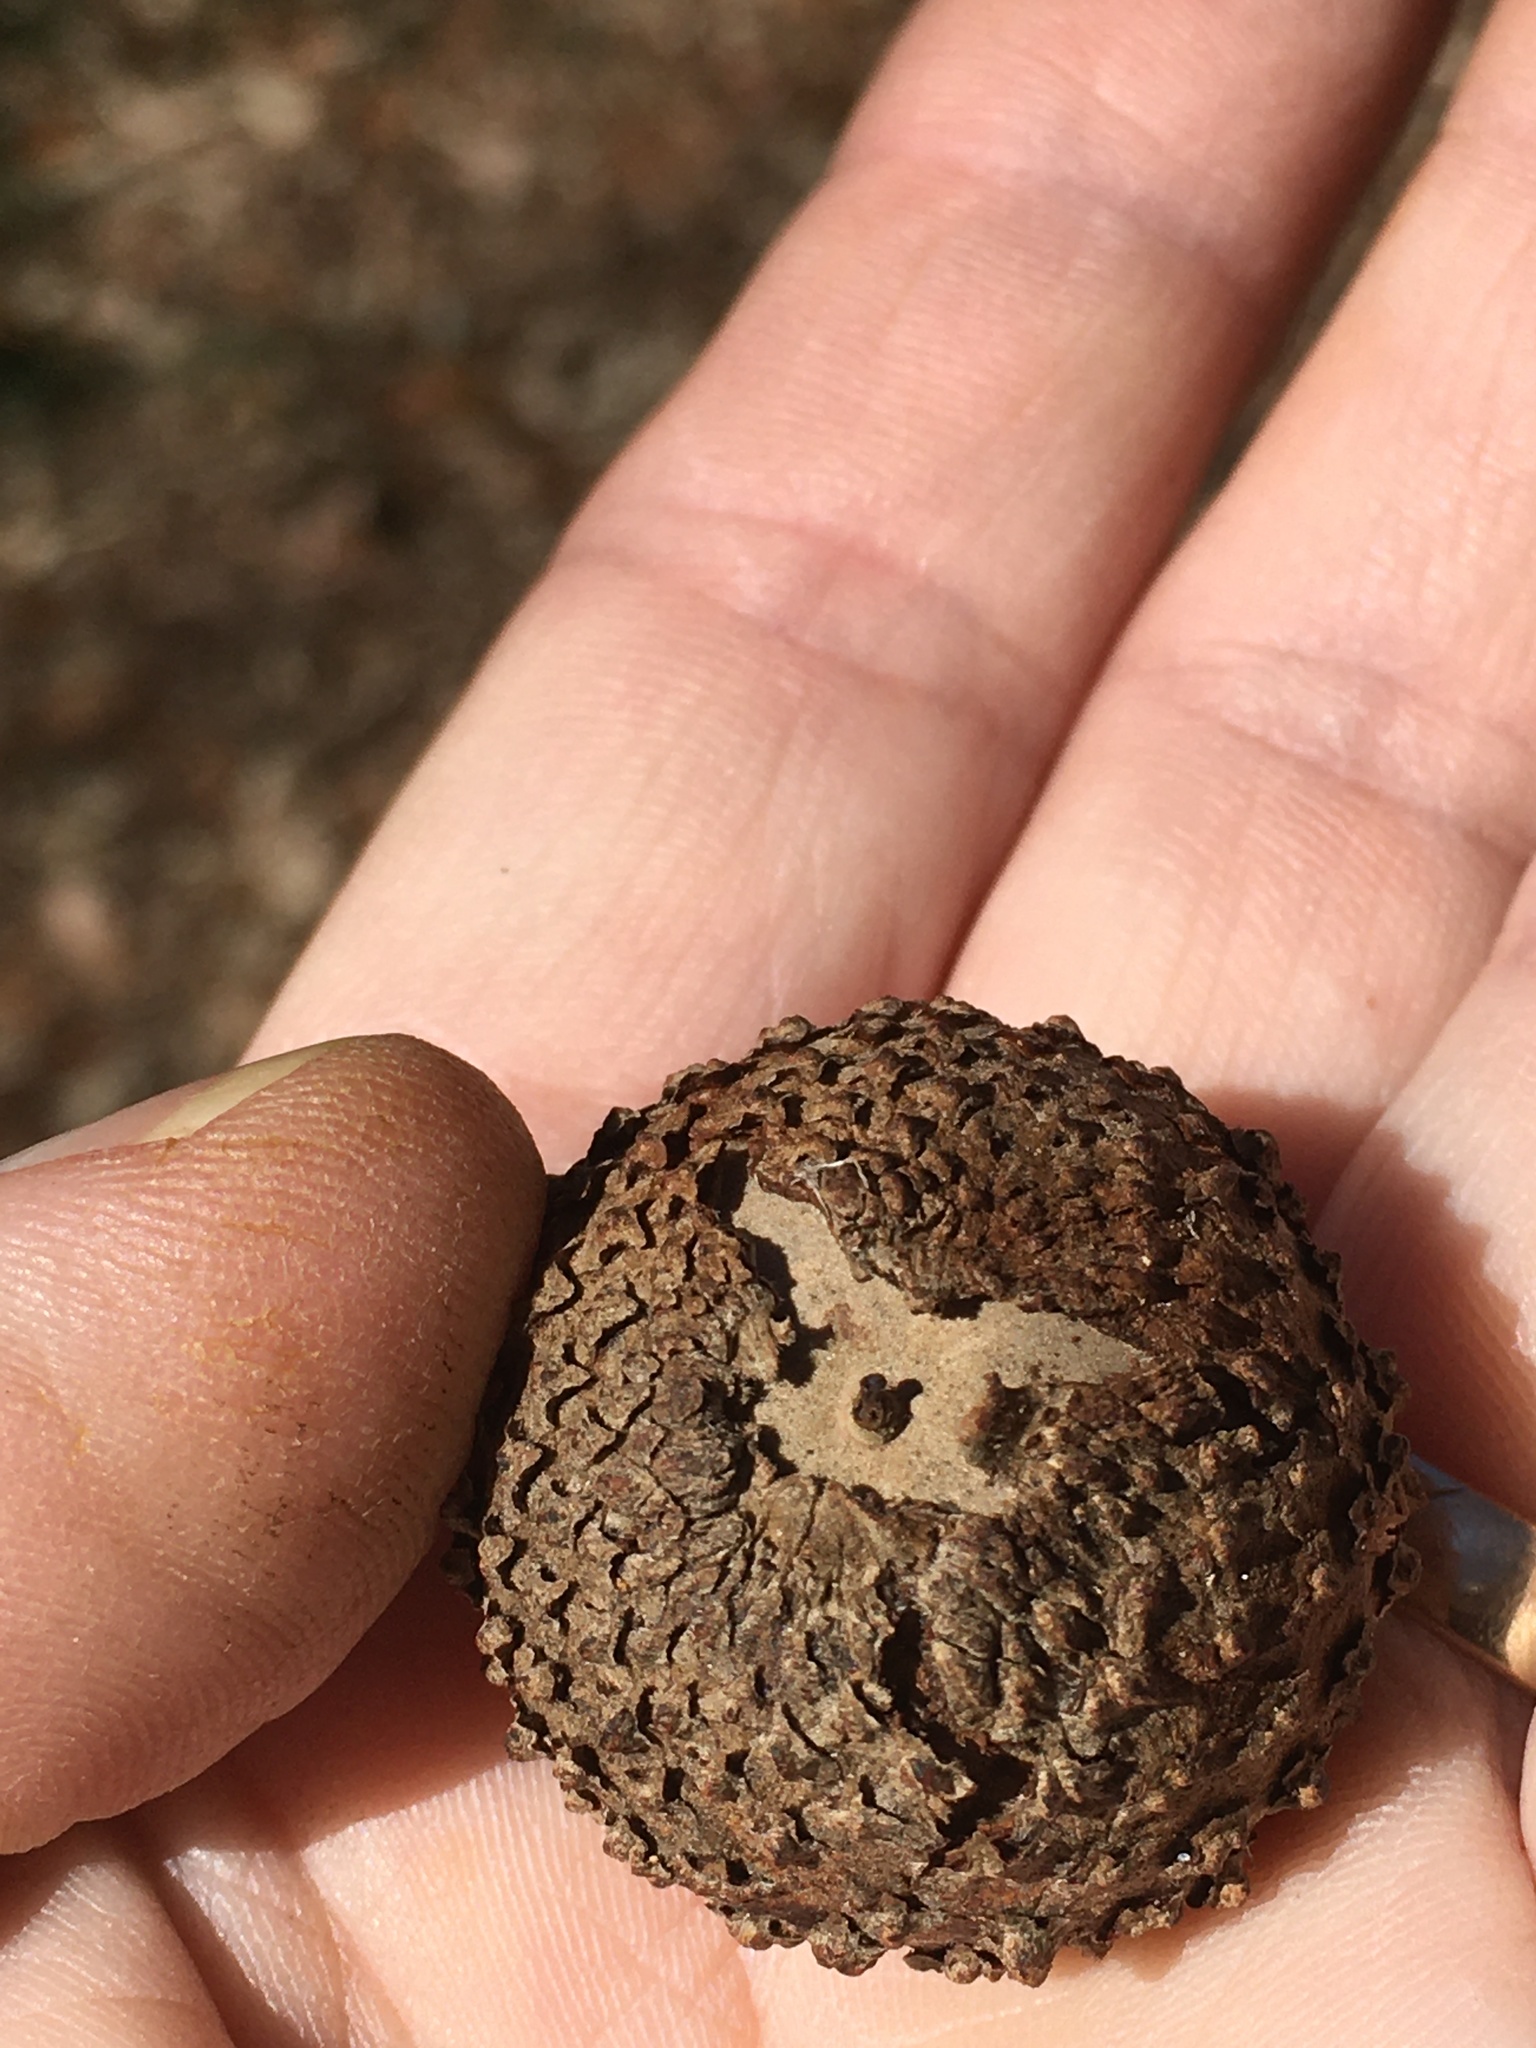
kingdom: Plantae
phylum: Tracheophyta
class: Magnoliopsida
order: Fagales
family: Fagaceae
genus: Quercus
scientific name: Quercus lyrata
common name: Overcup oak
